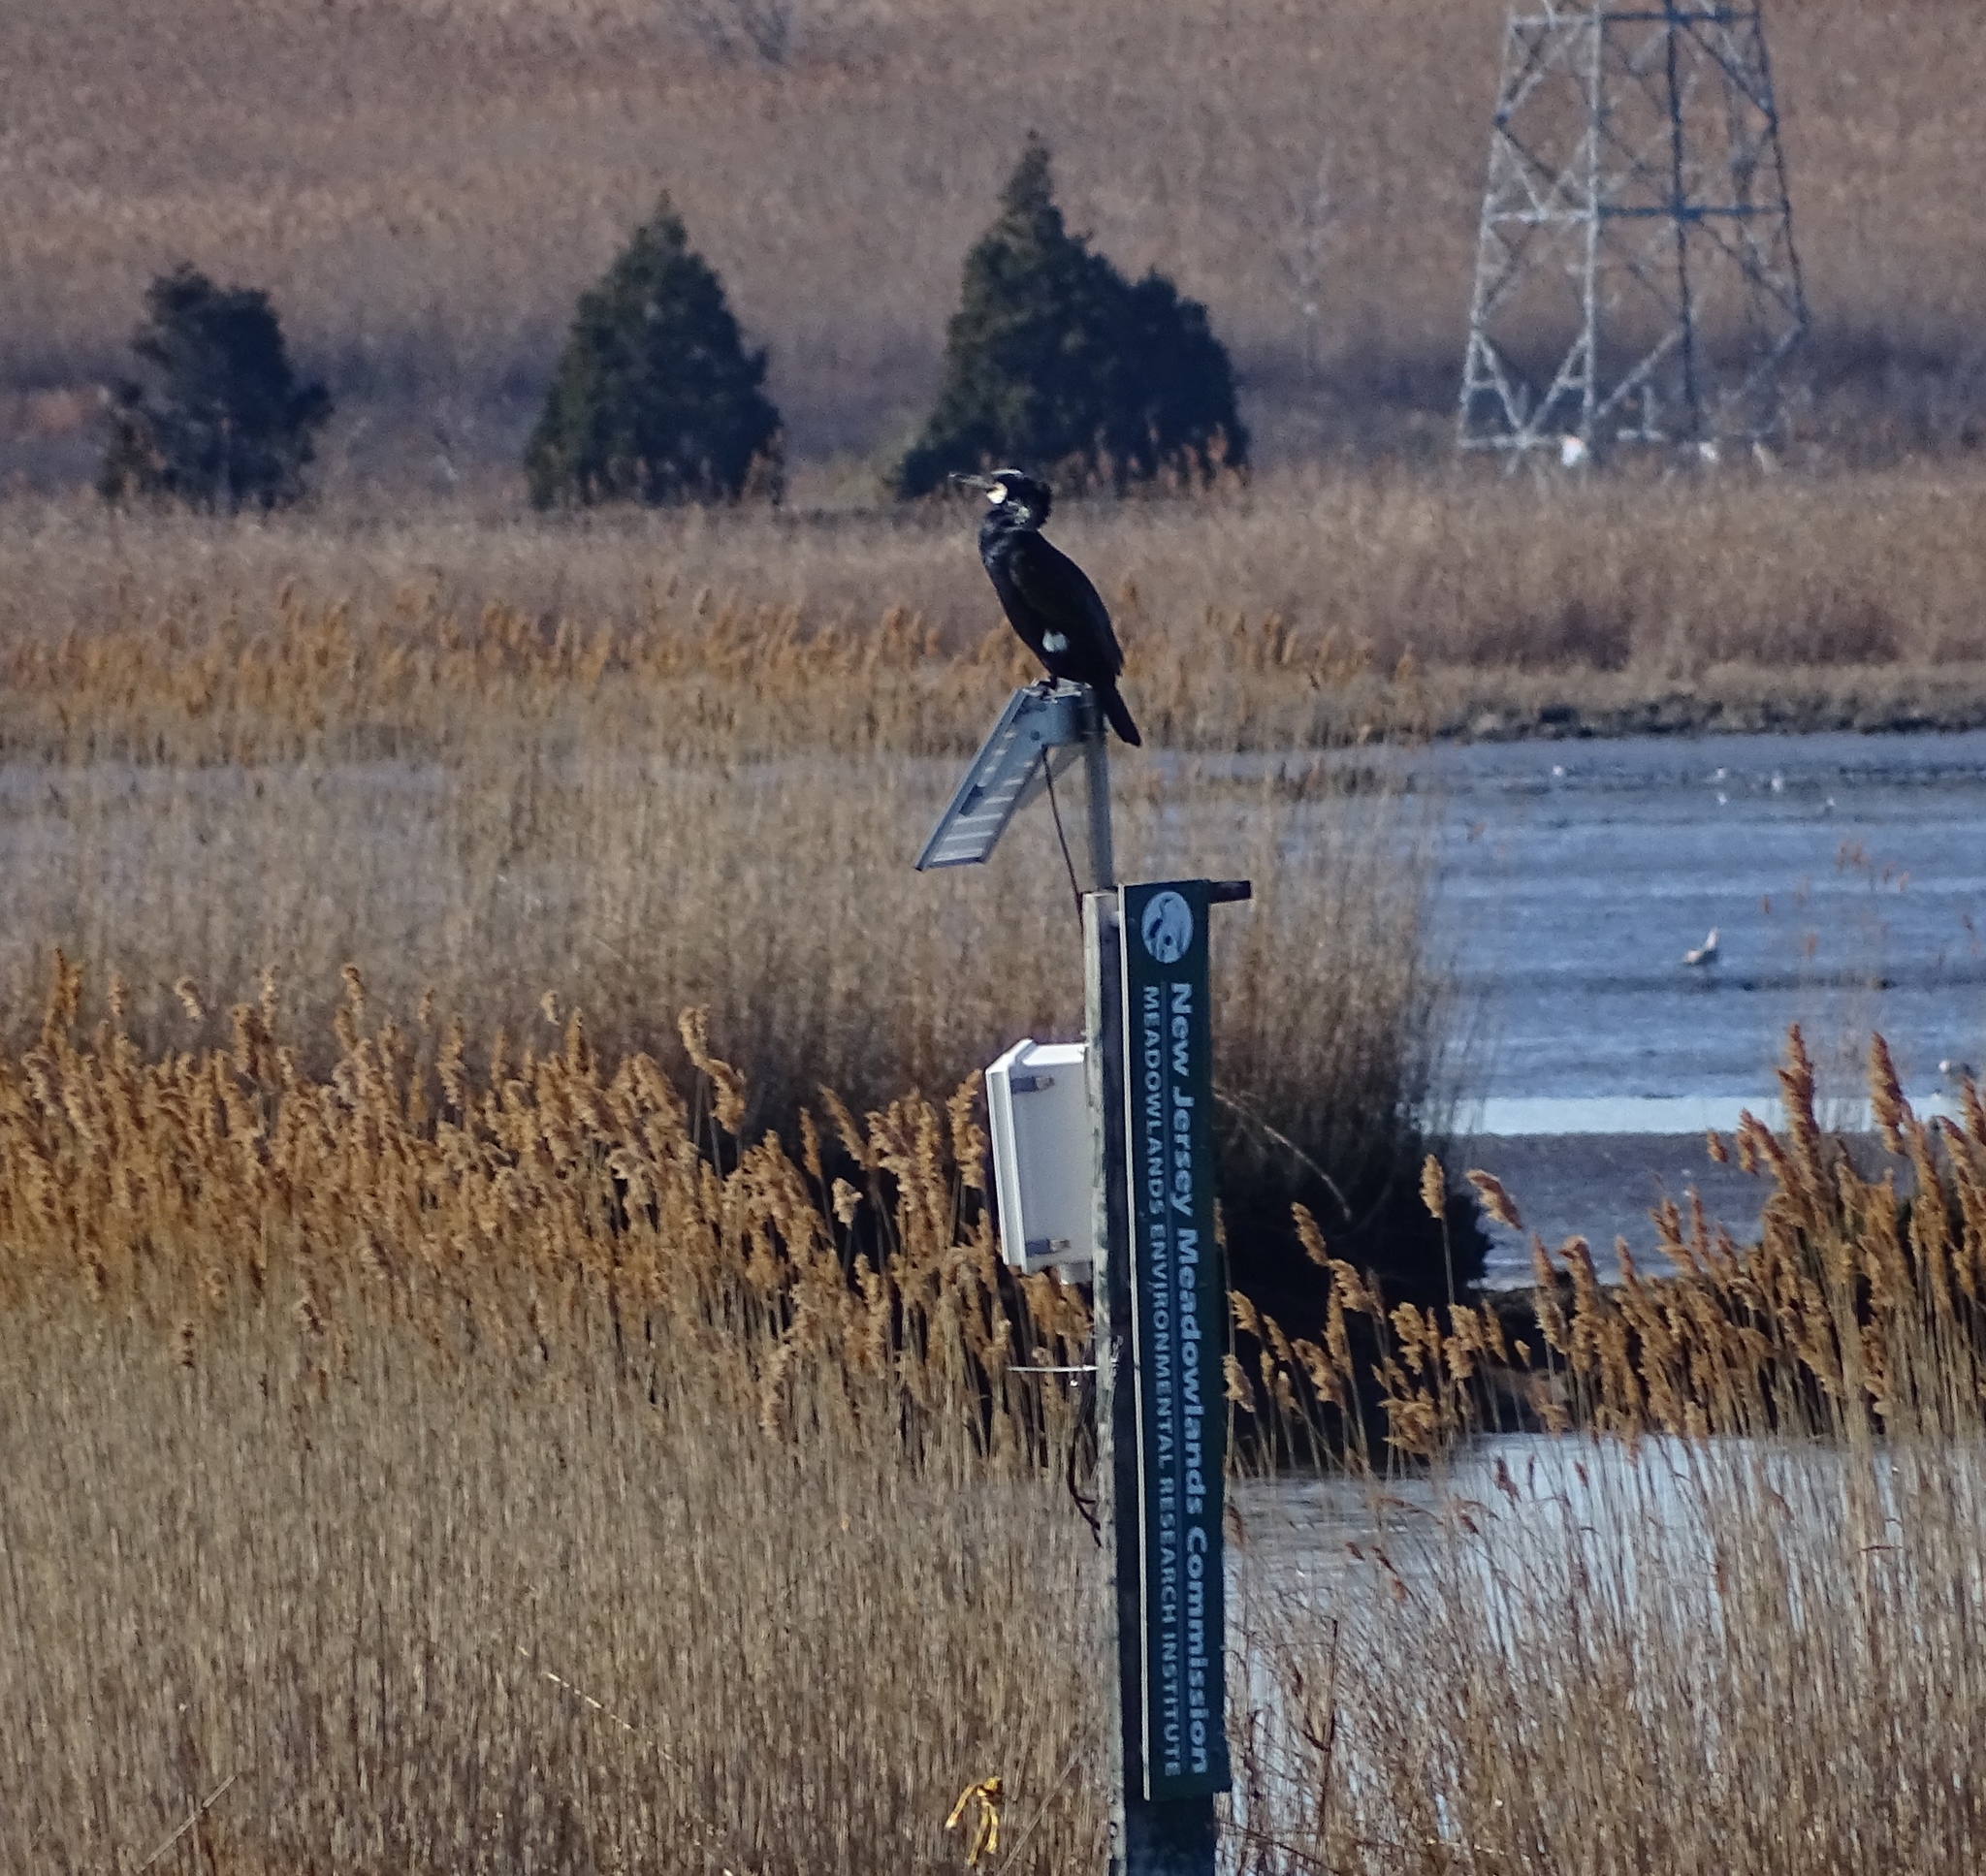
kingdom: Animalia
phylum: Chordata
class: Aves
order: Suliformes
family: Phalacrocoracidae
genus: Phalacrocorax
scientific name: Phalacrocorax carbo
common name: Great cormorant
